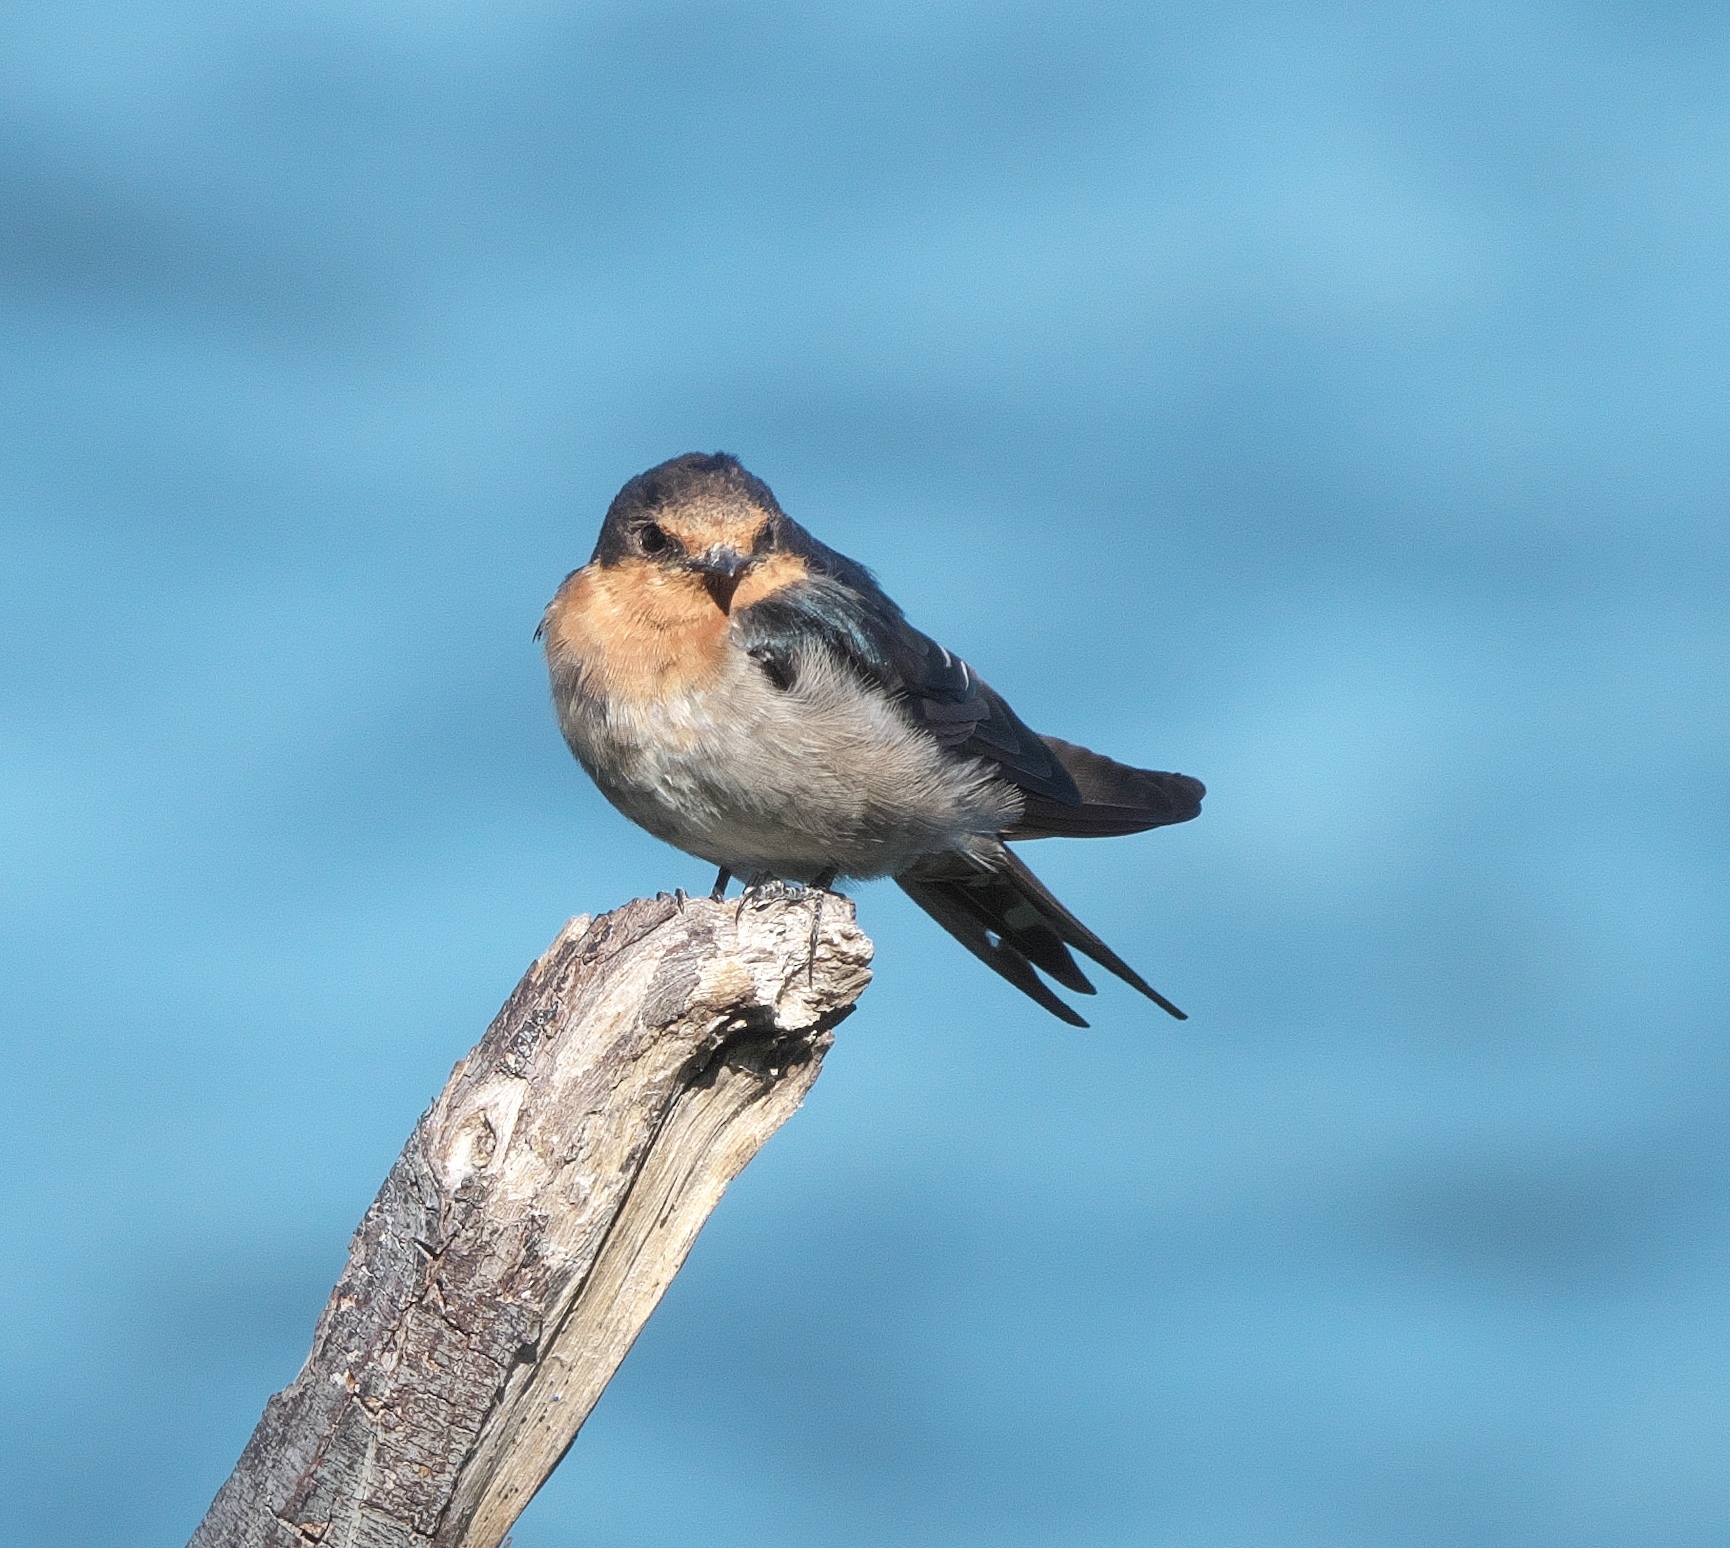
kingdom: Animalia
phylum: Chordata
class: Aves
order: Passeriformes
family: Hirundinidae
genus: Hirundo
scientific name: Hirundo neoxena
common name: Welcome swallow
